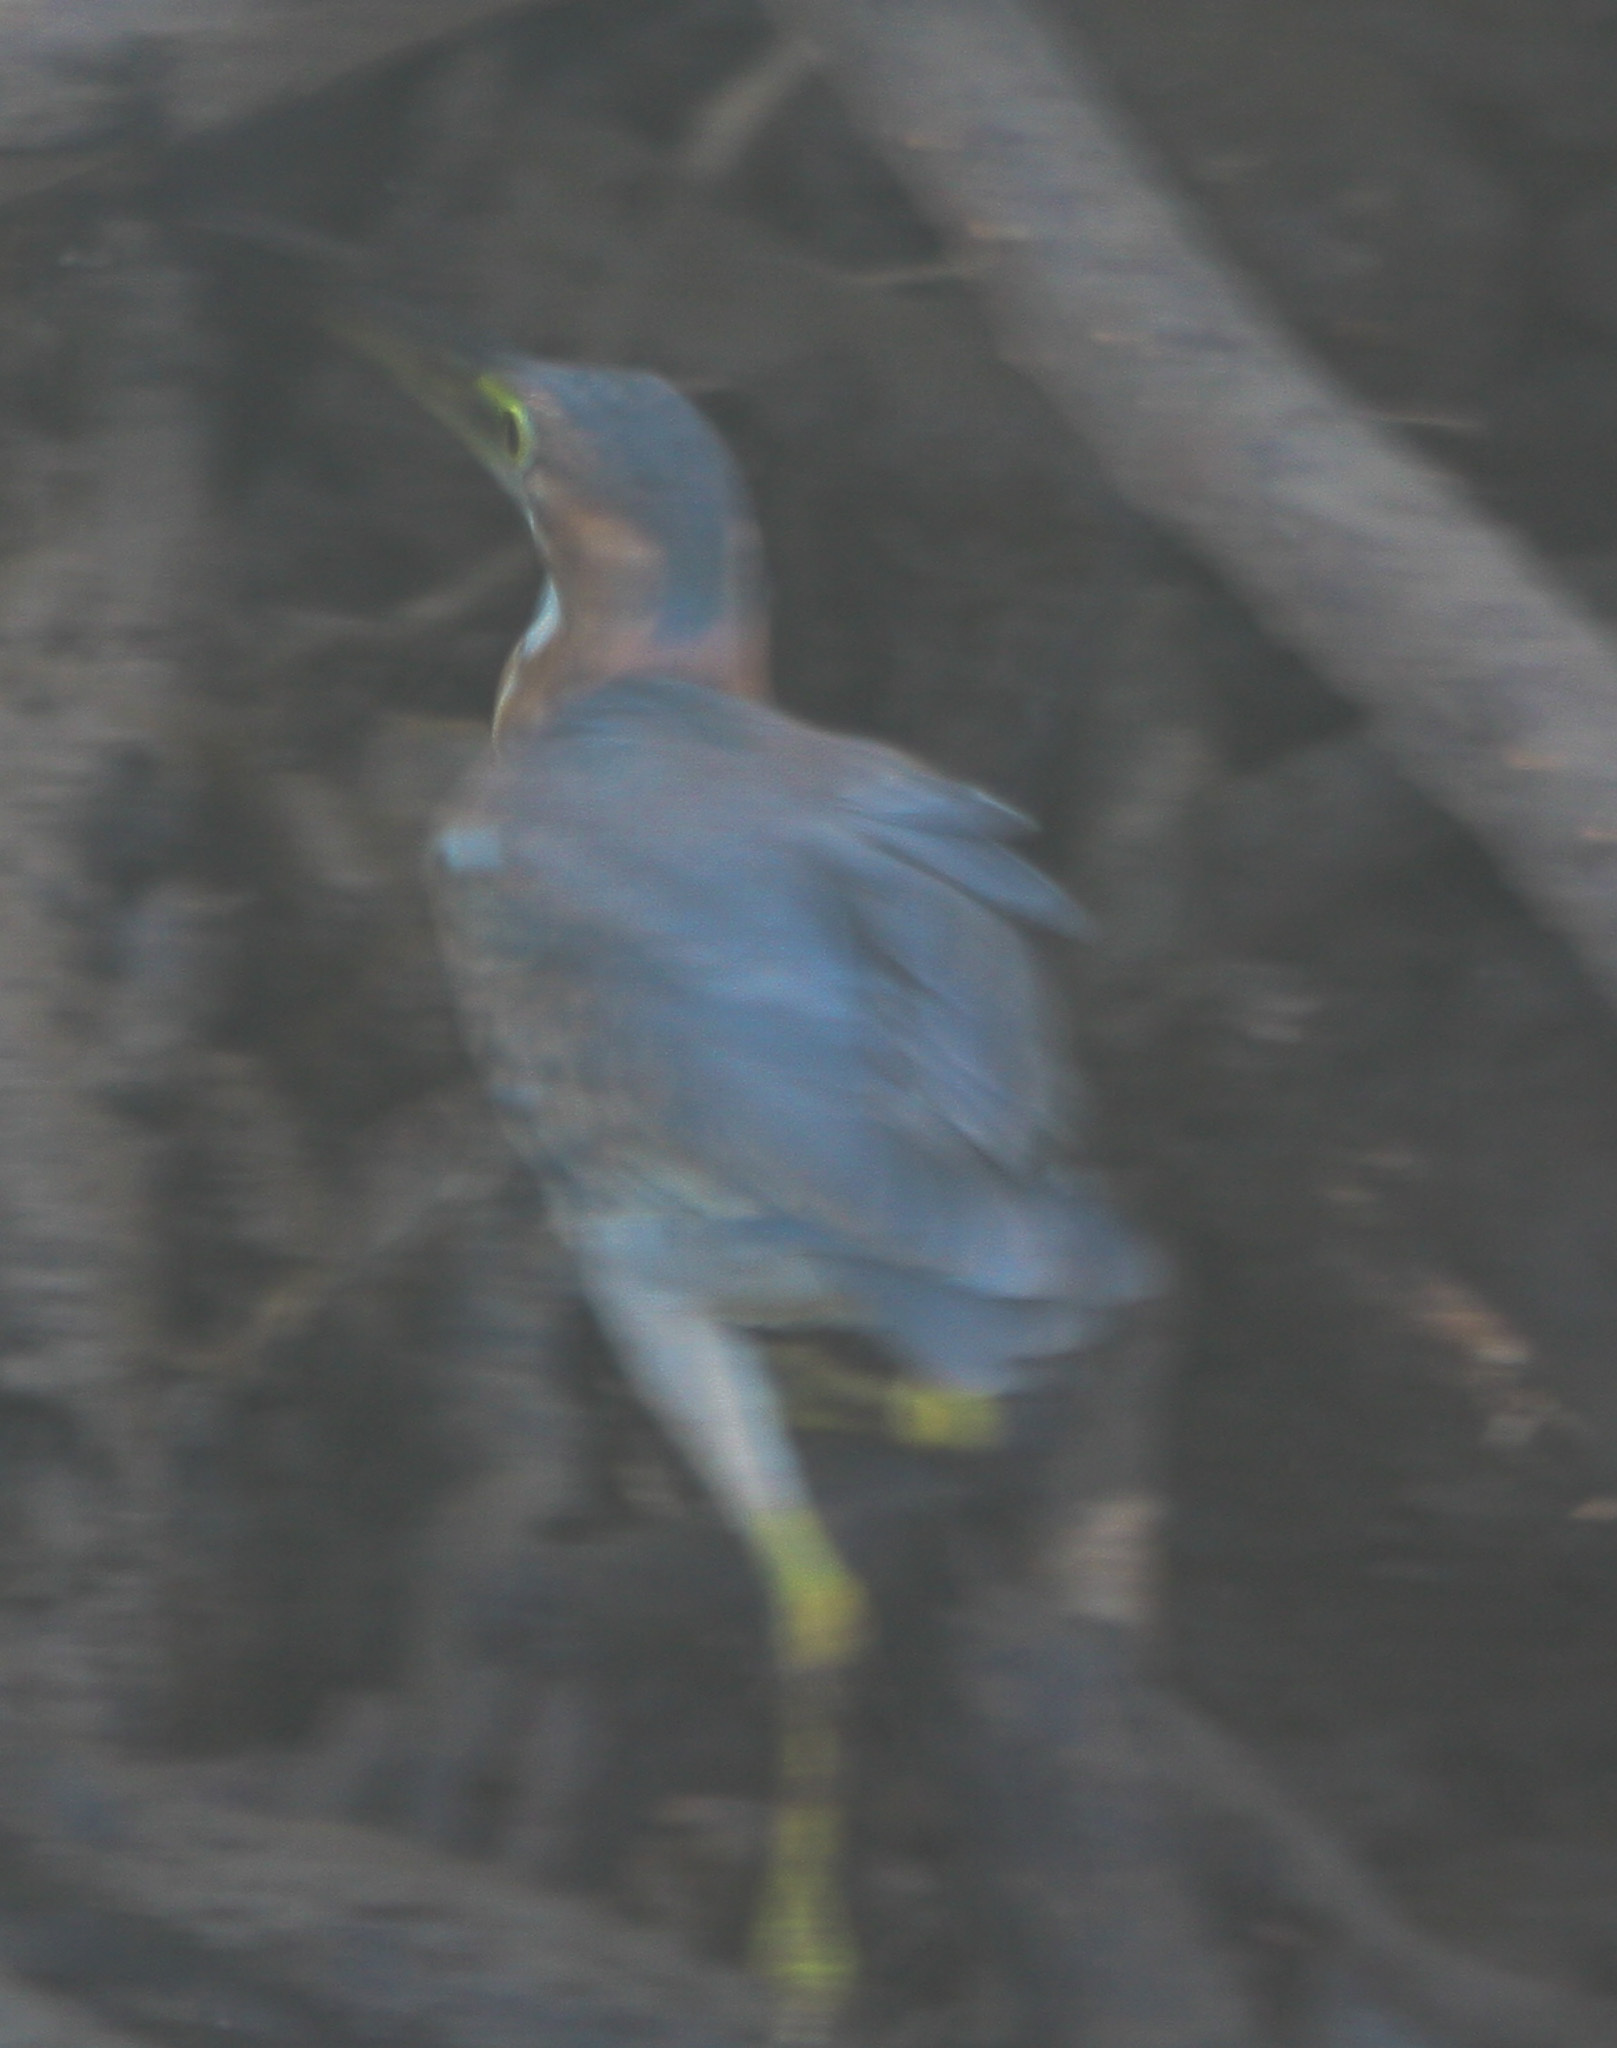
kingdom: Animalia
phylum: Chordata
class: Aves
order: Pelecaniformes
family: Ardeidae
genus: Butorides
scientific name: Butorides virescens
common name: Green heron
